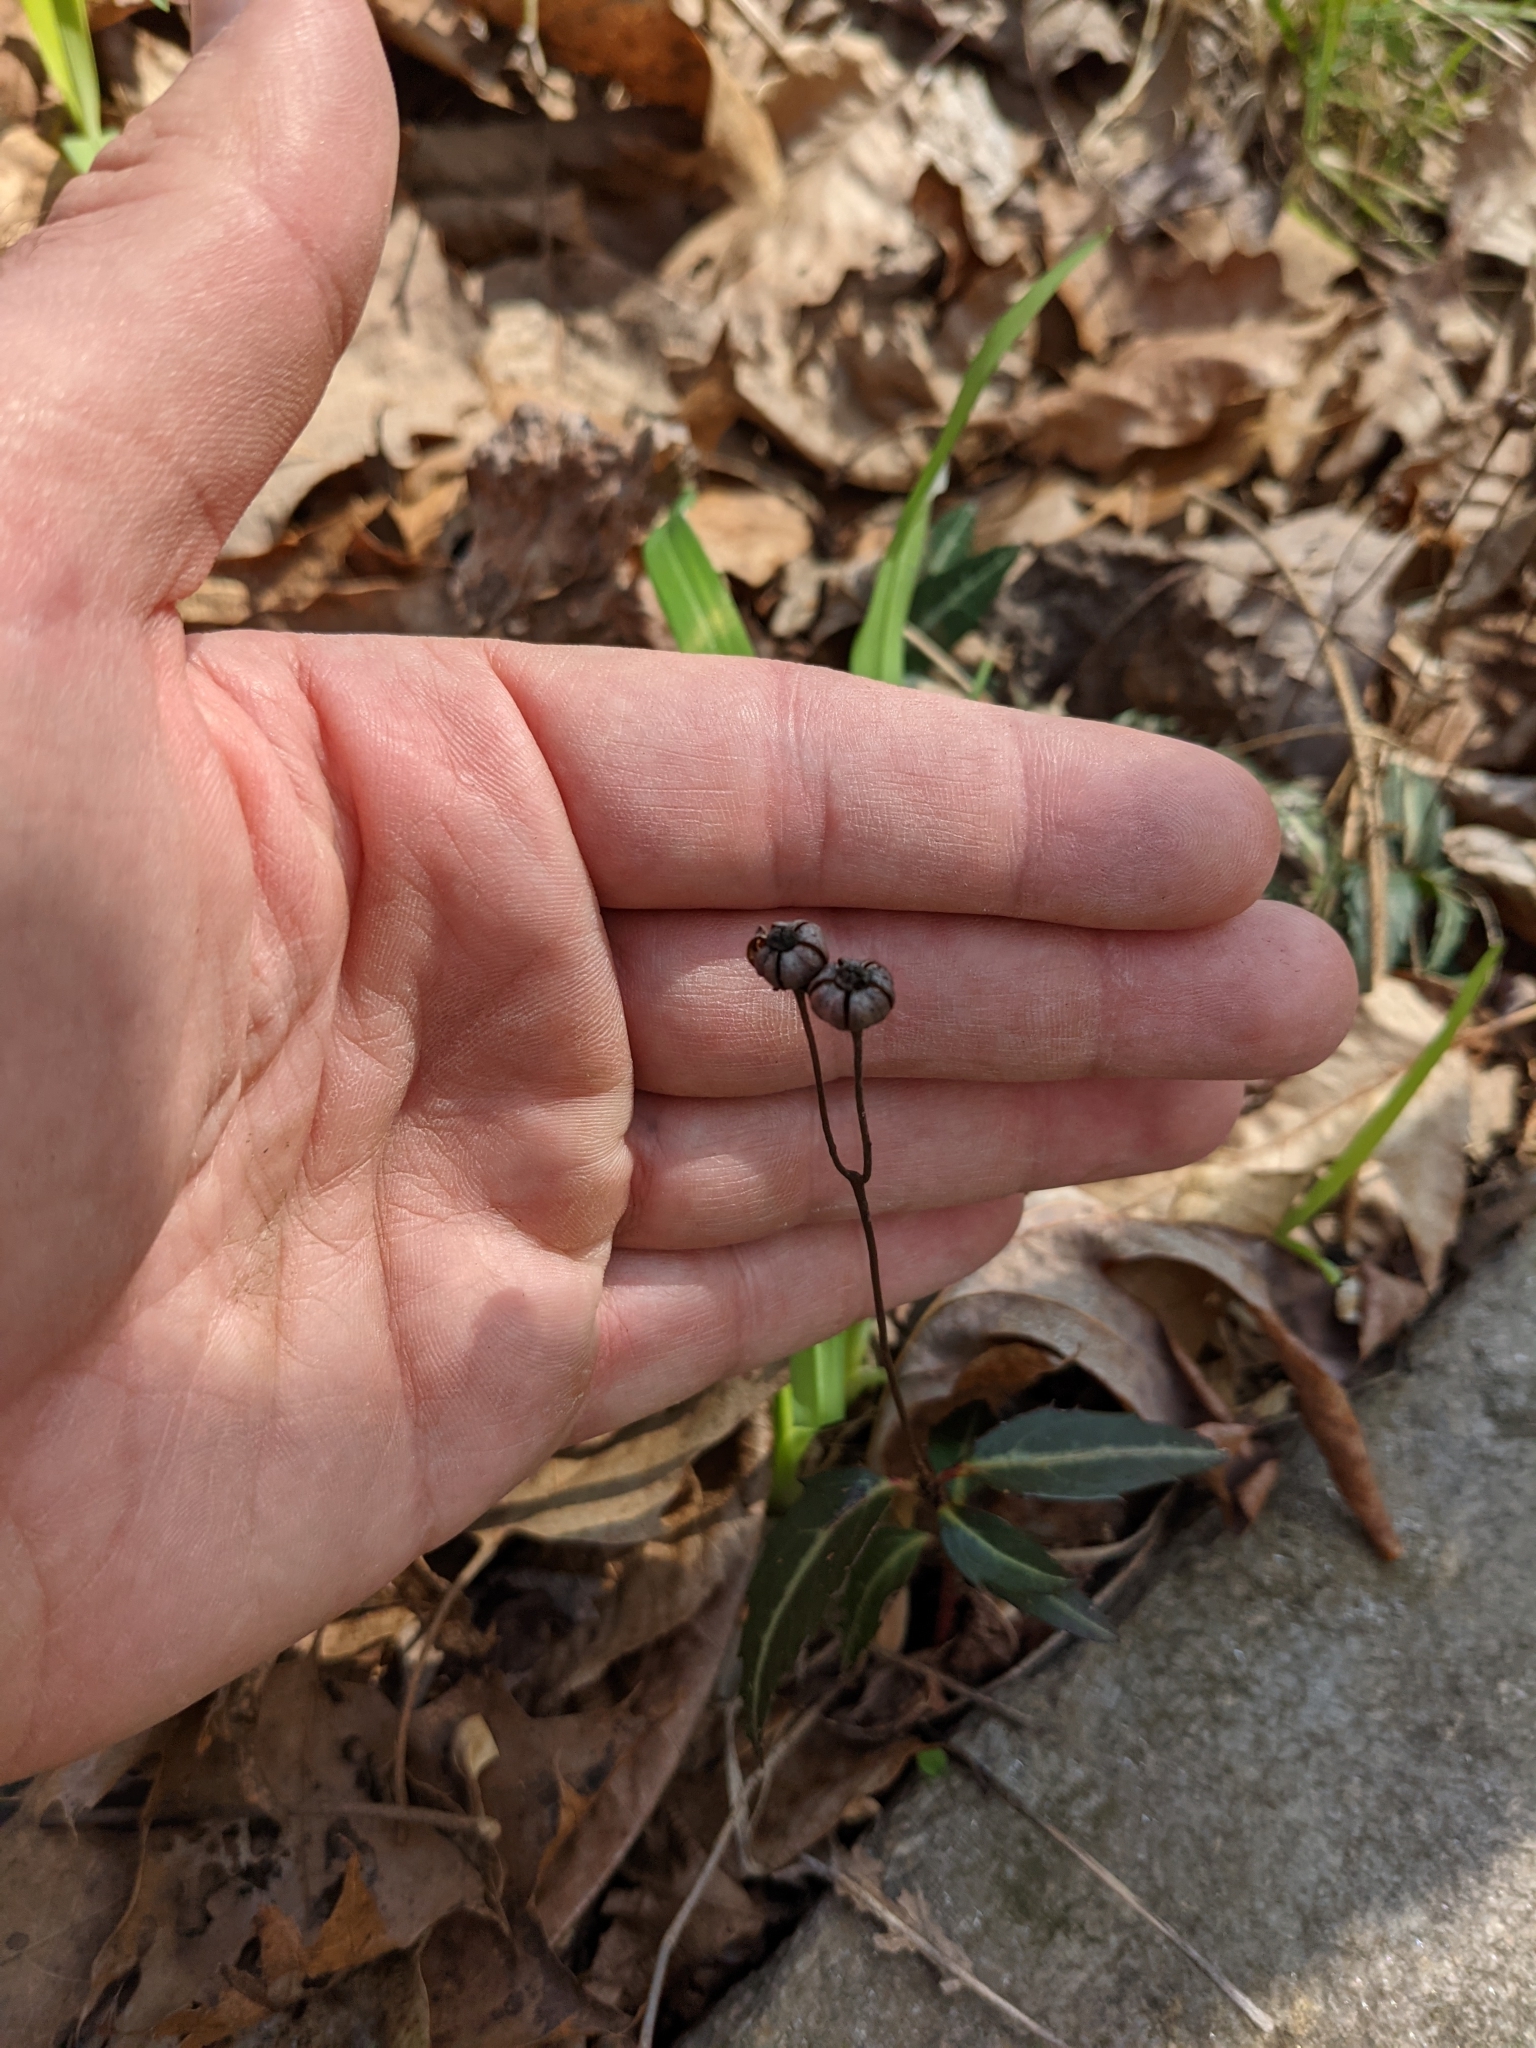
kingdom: Plantae
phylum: Tracheophyta
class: Magnoliopsida
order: Ericales
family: Ericaceae
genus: Chimaphila
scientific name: Chimaphila maculata
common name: Spotted pipsissewa
